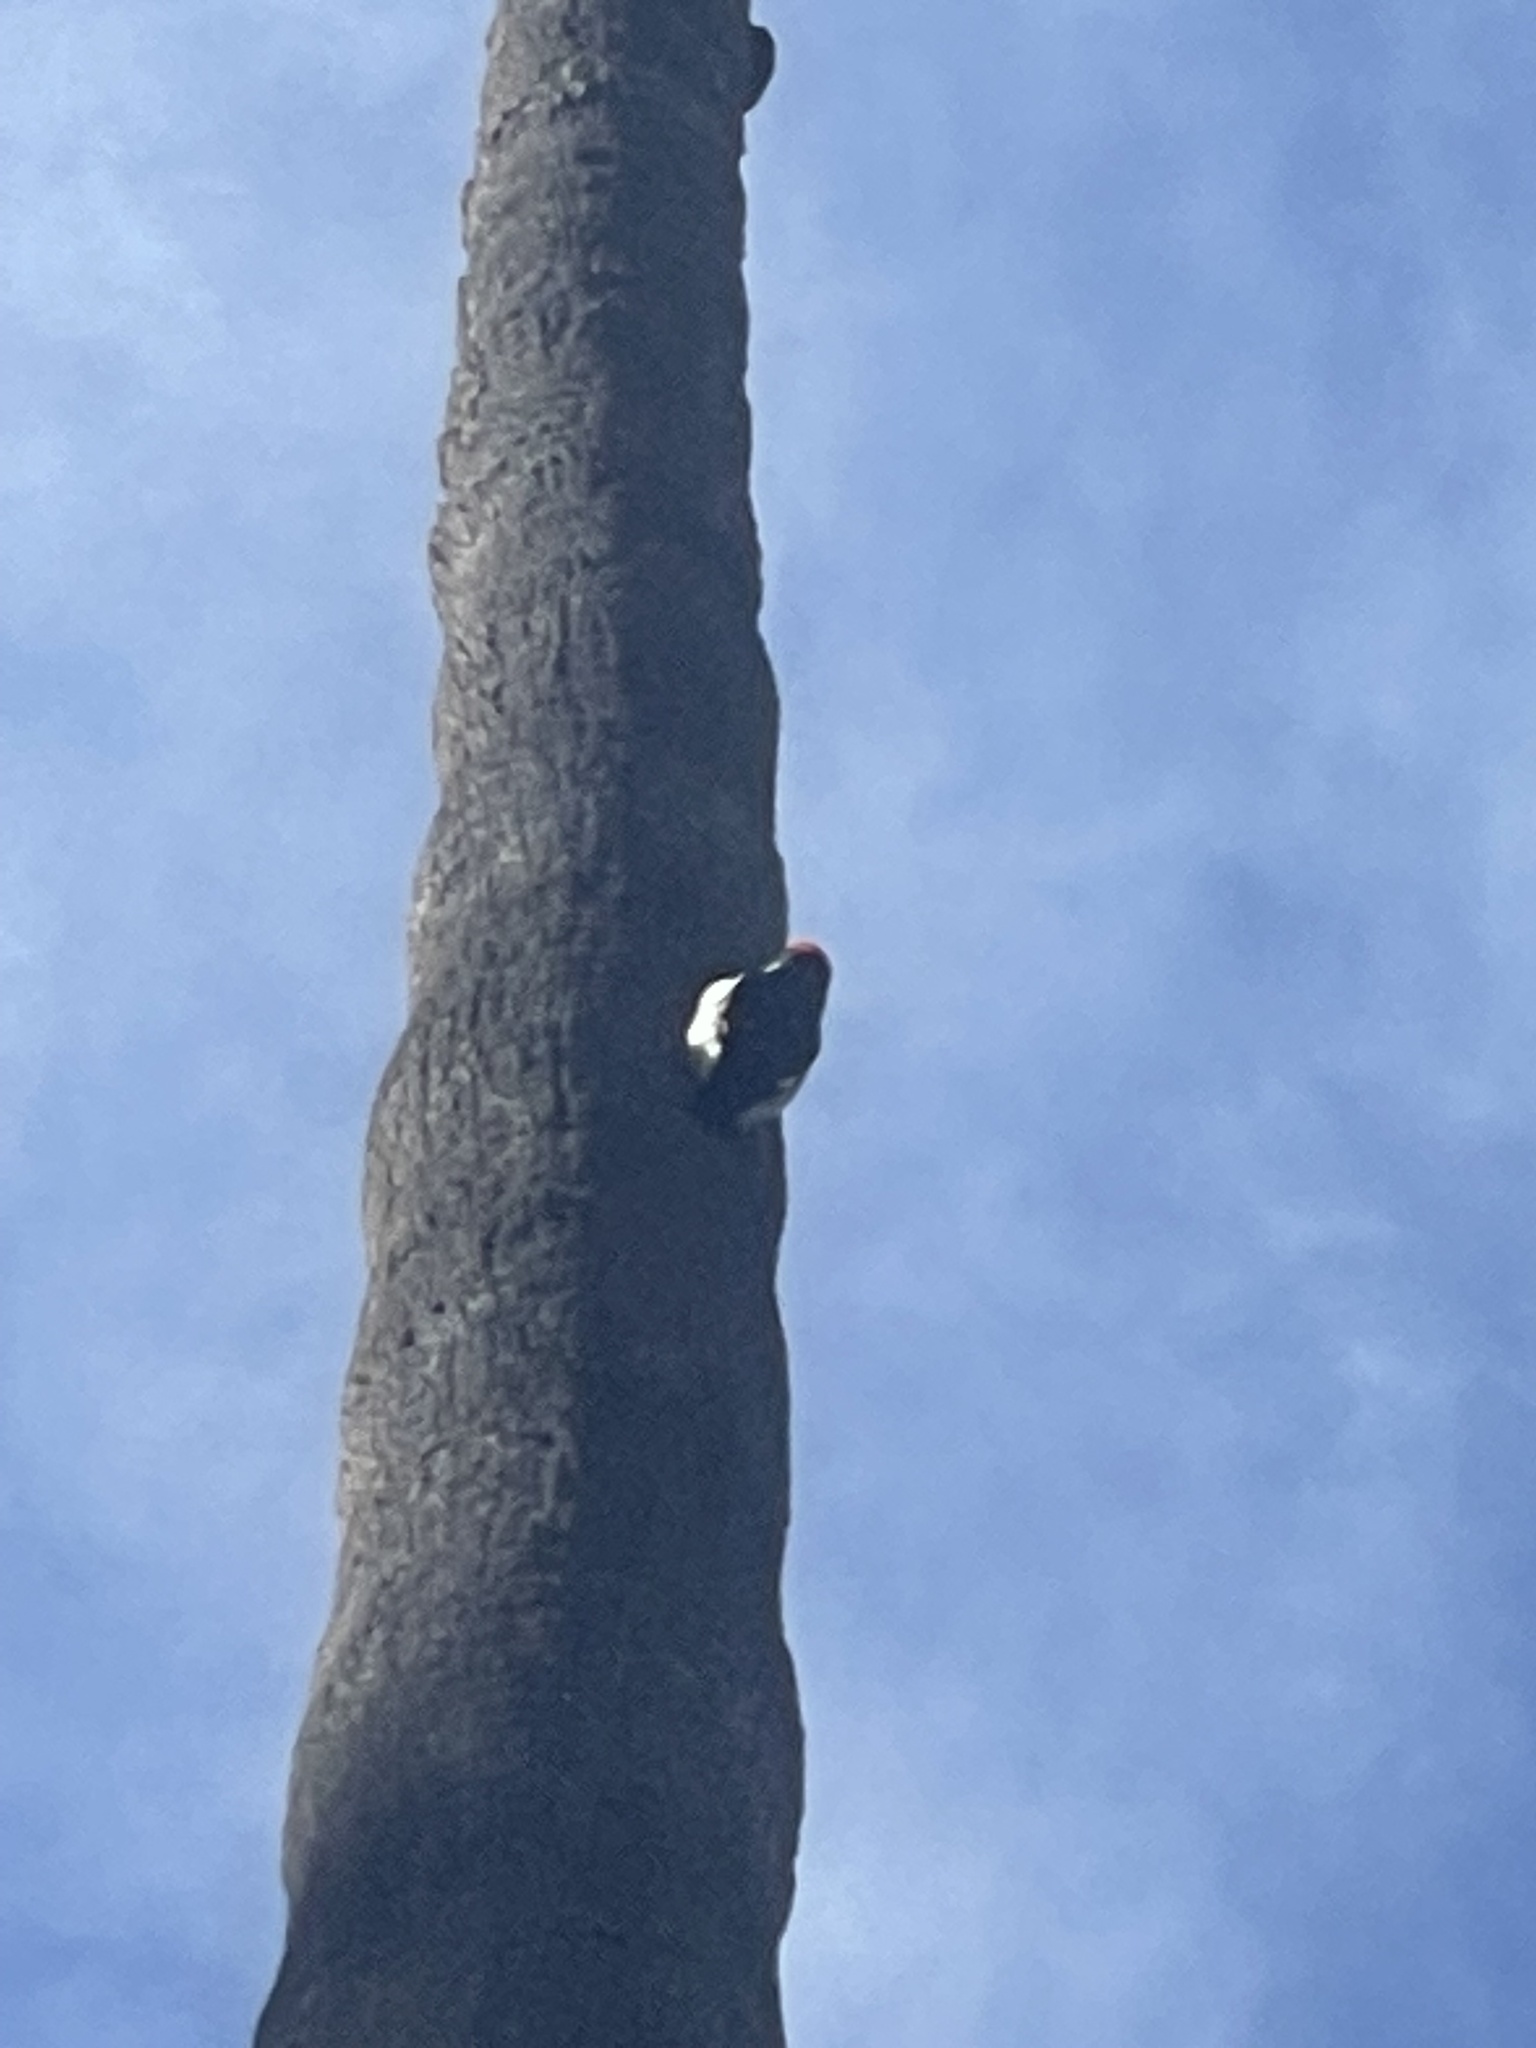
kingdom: Animalia
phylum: Chordata
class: Aves
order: Piciformes
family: Picidae
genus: Melanerpes
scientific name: Melanerpes formicivorus
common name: Acorn woodpecker
